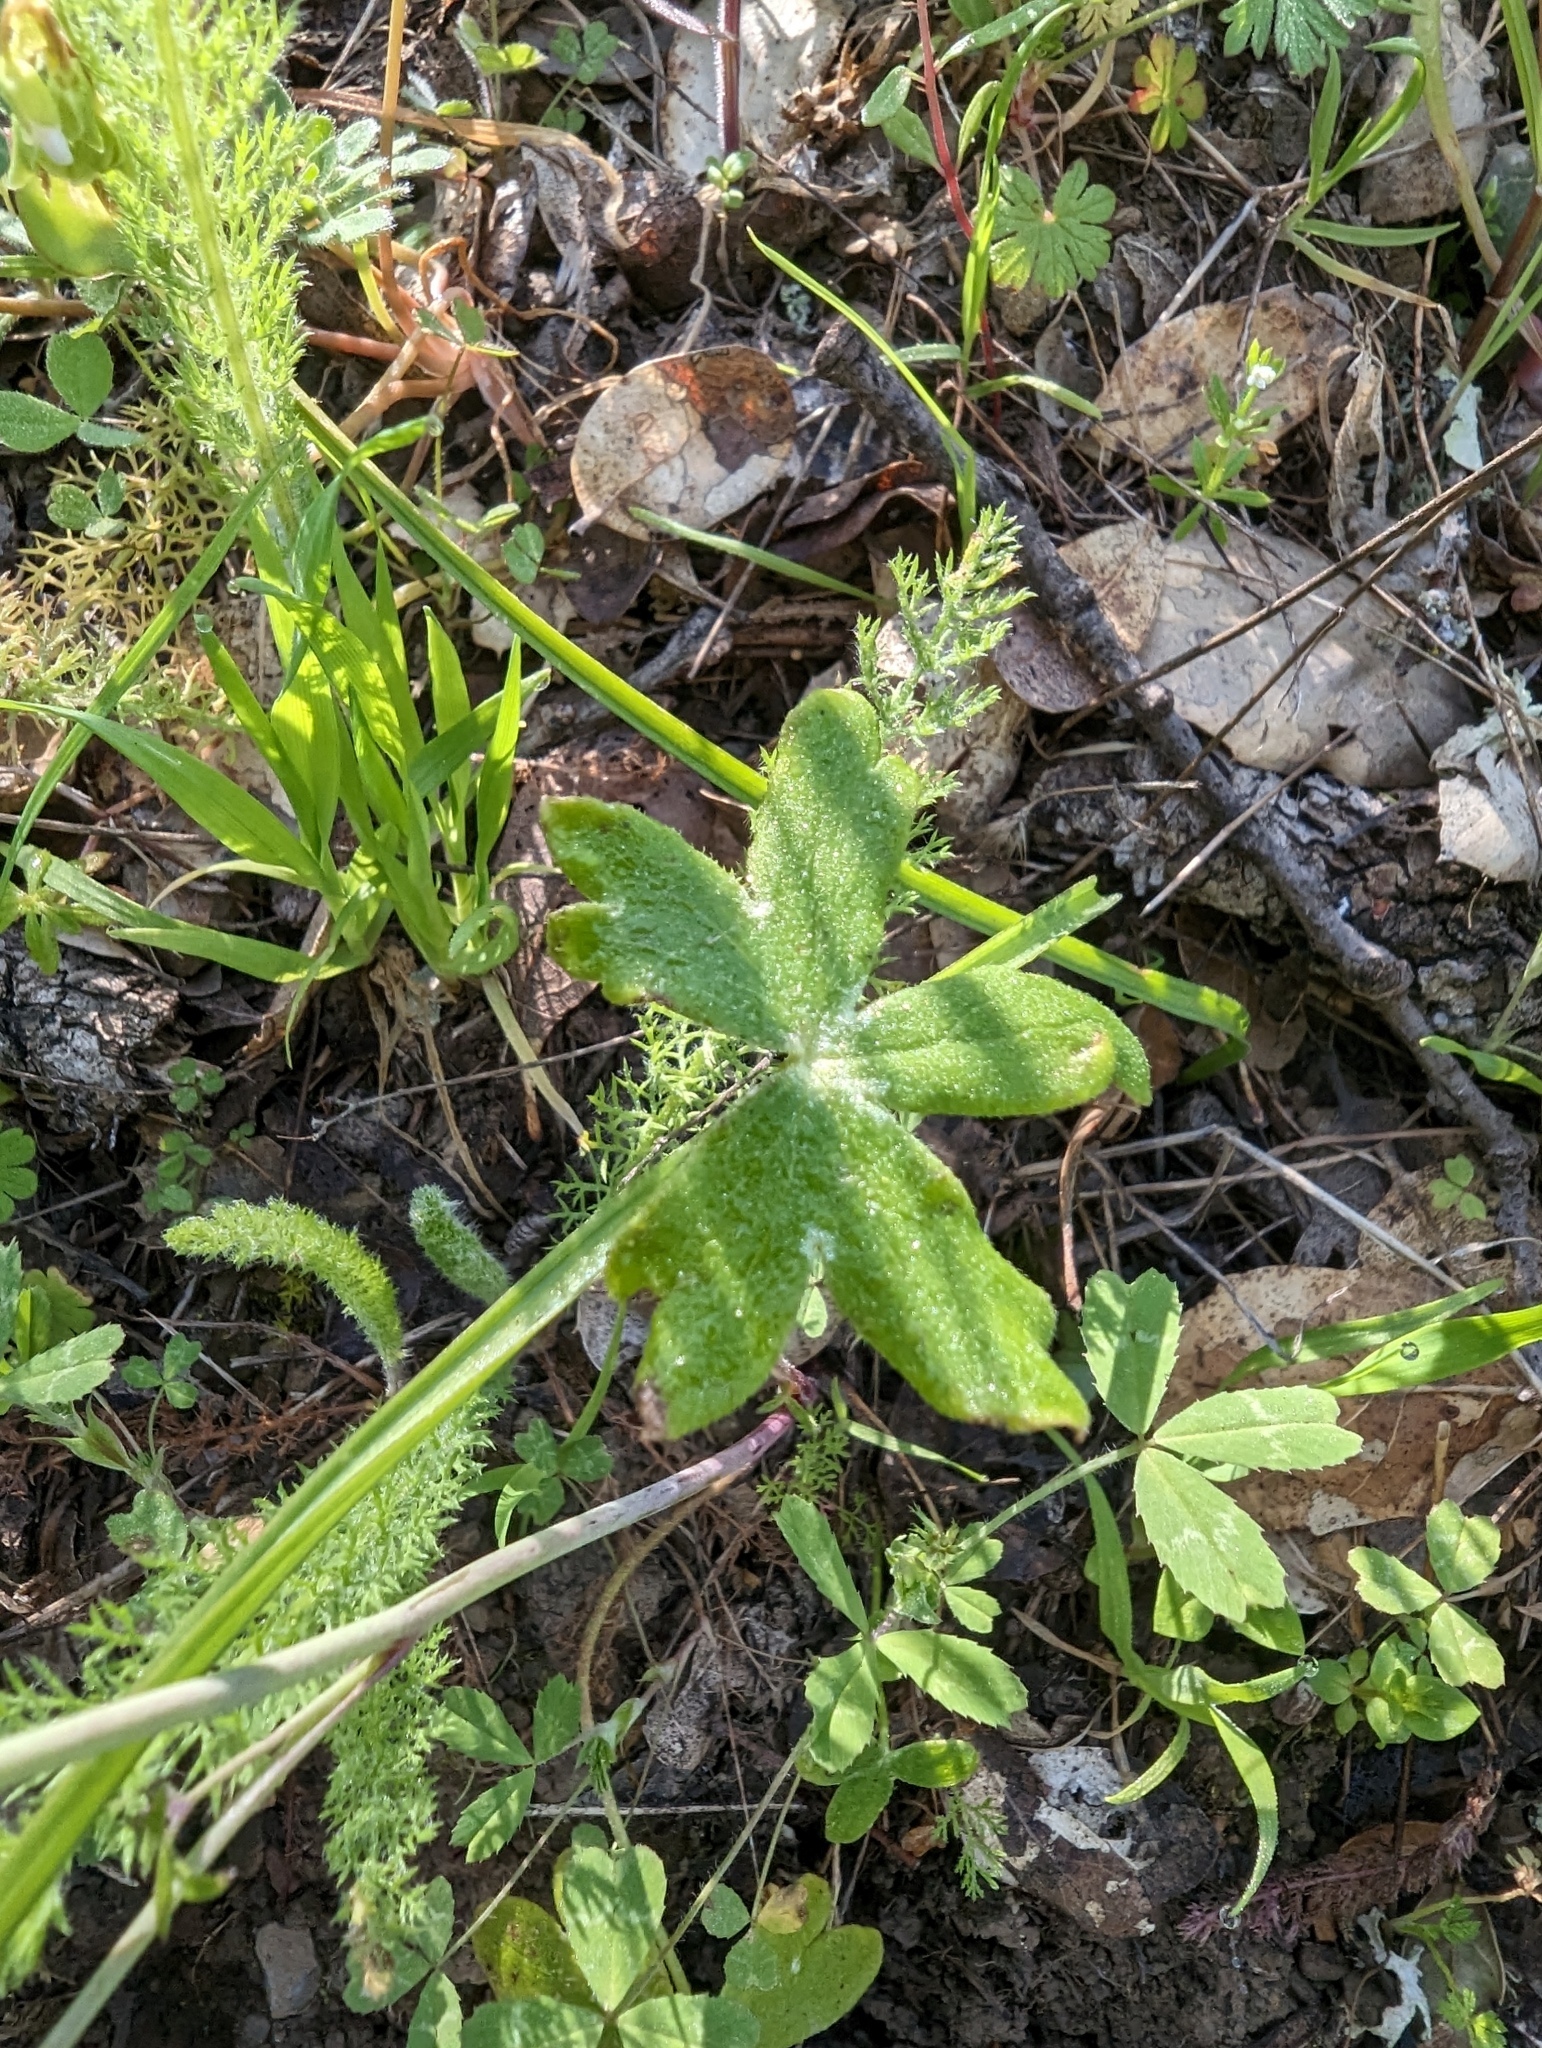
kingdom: Plantae
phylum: Tracheophyta
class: Magnoliopsida
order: Ranunculales
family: Ranunculaceae
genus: Delphinium
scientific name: Delphinium patens
